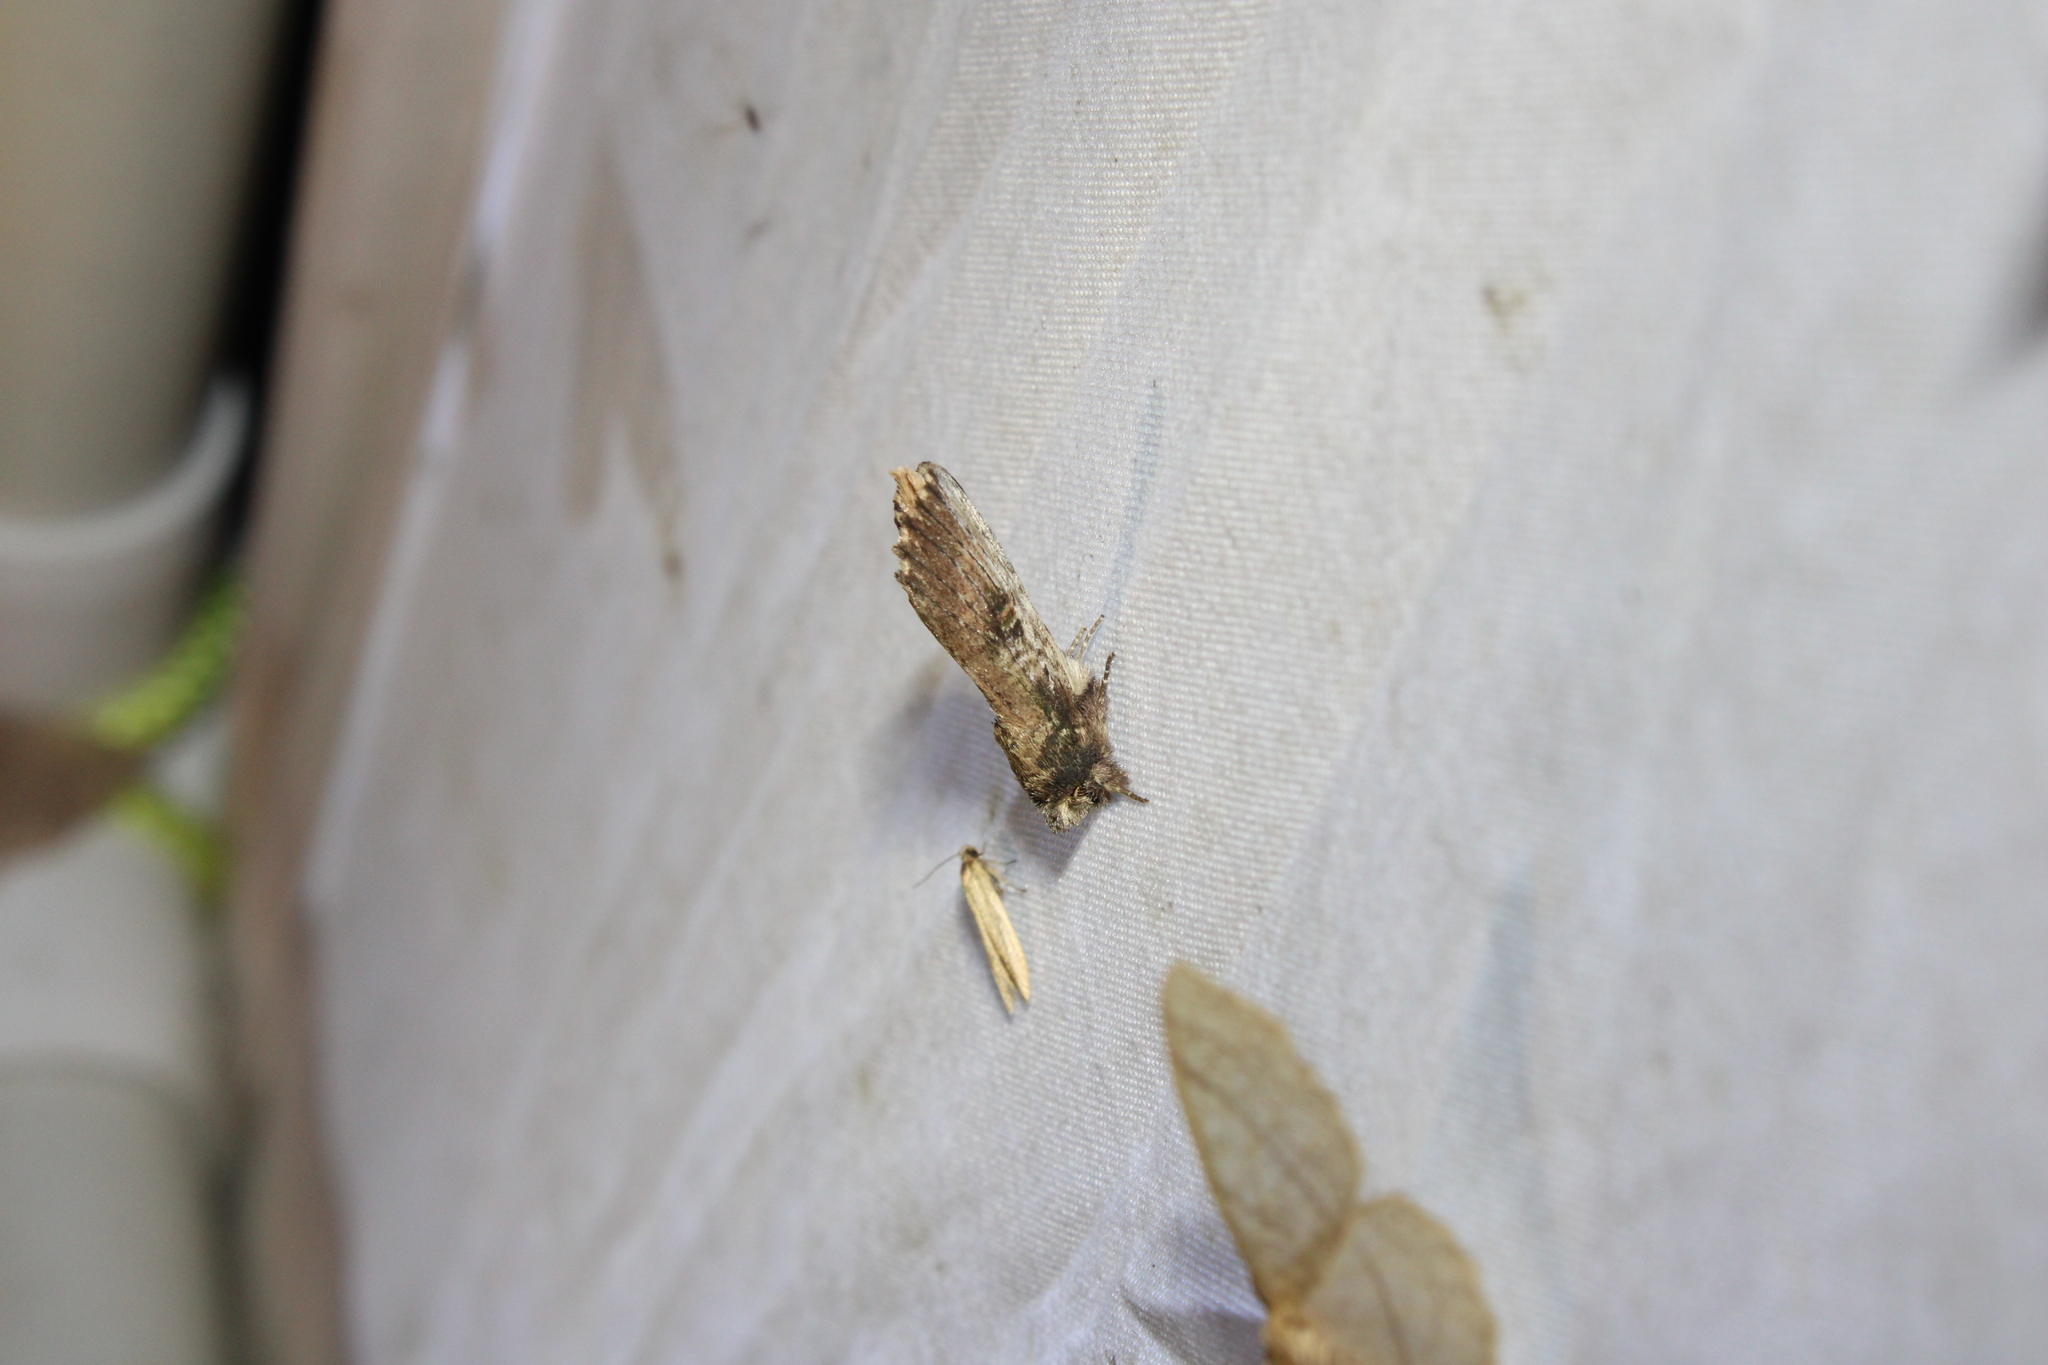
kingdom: Animalia
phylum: Arthropoda
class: Insecta
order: Lepidoptera
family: Notodontidae
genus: Schizura
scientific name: Schizura ipomaeae
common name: Morning-glory prominent
